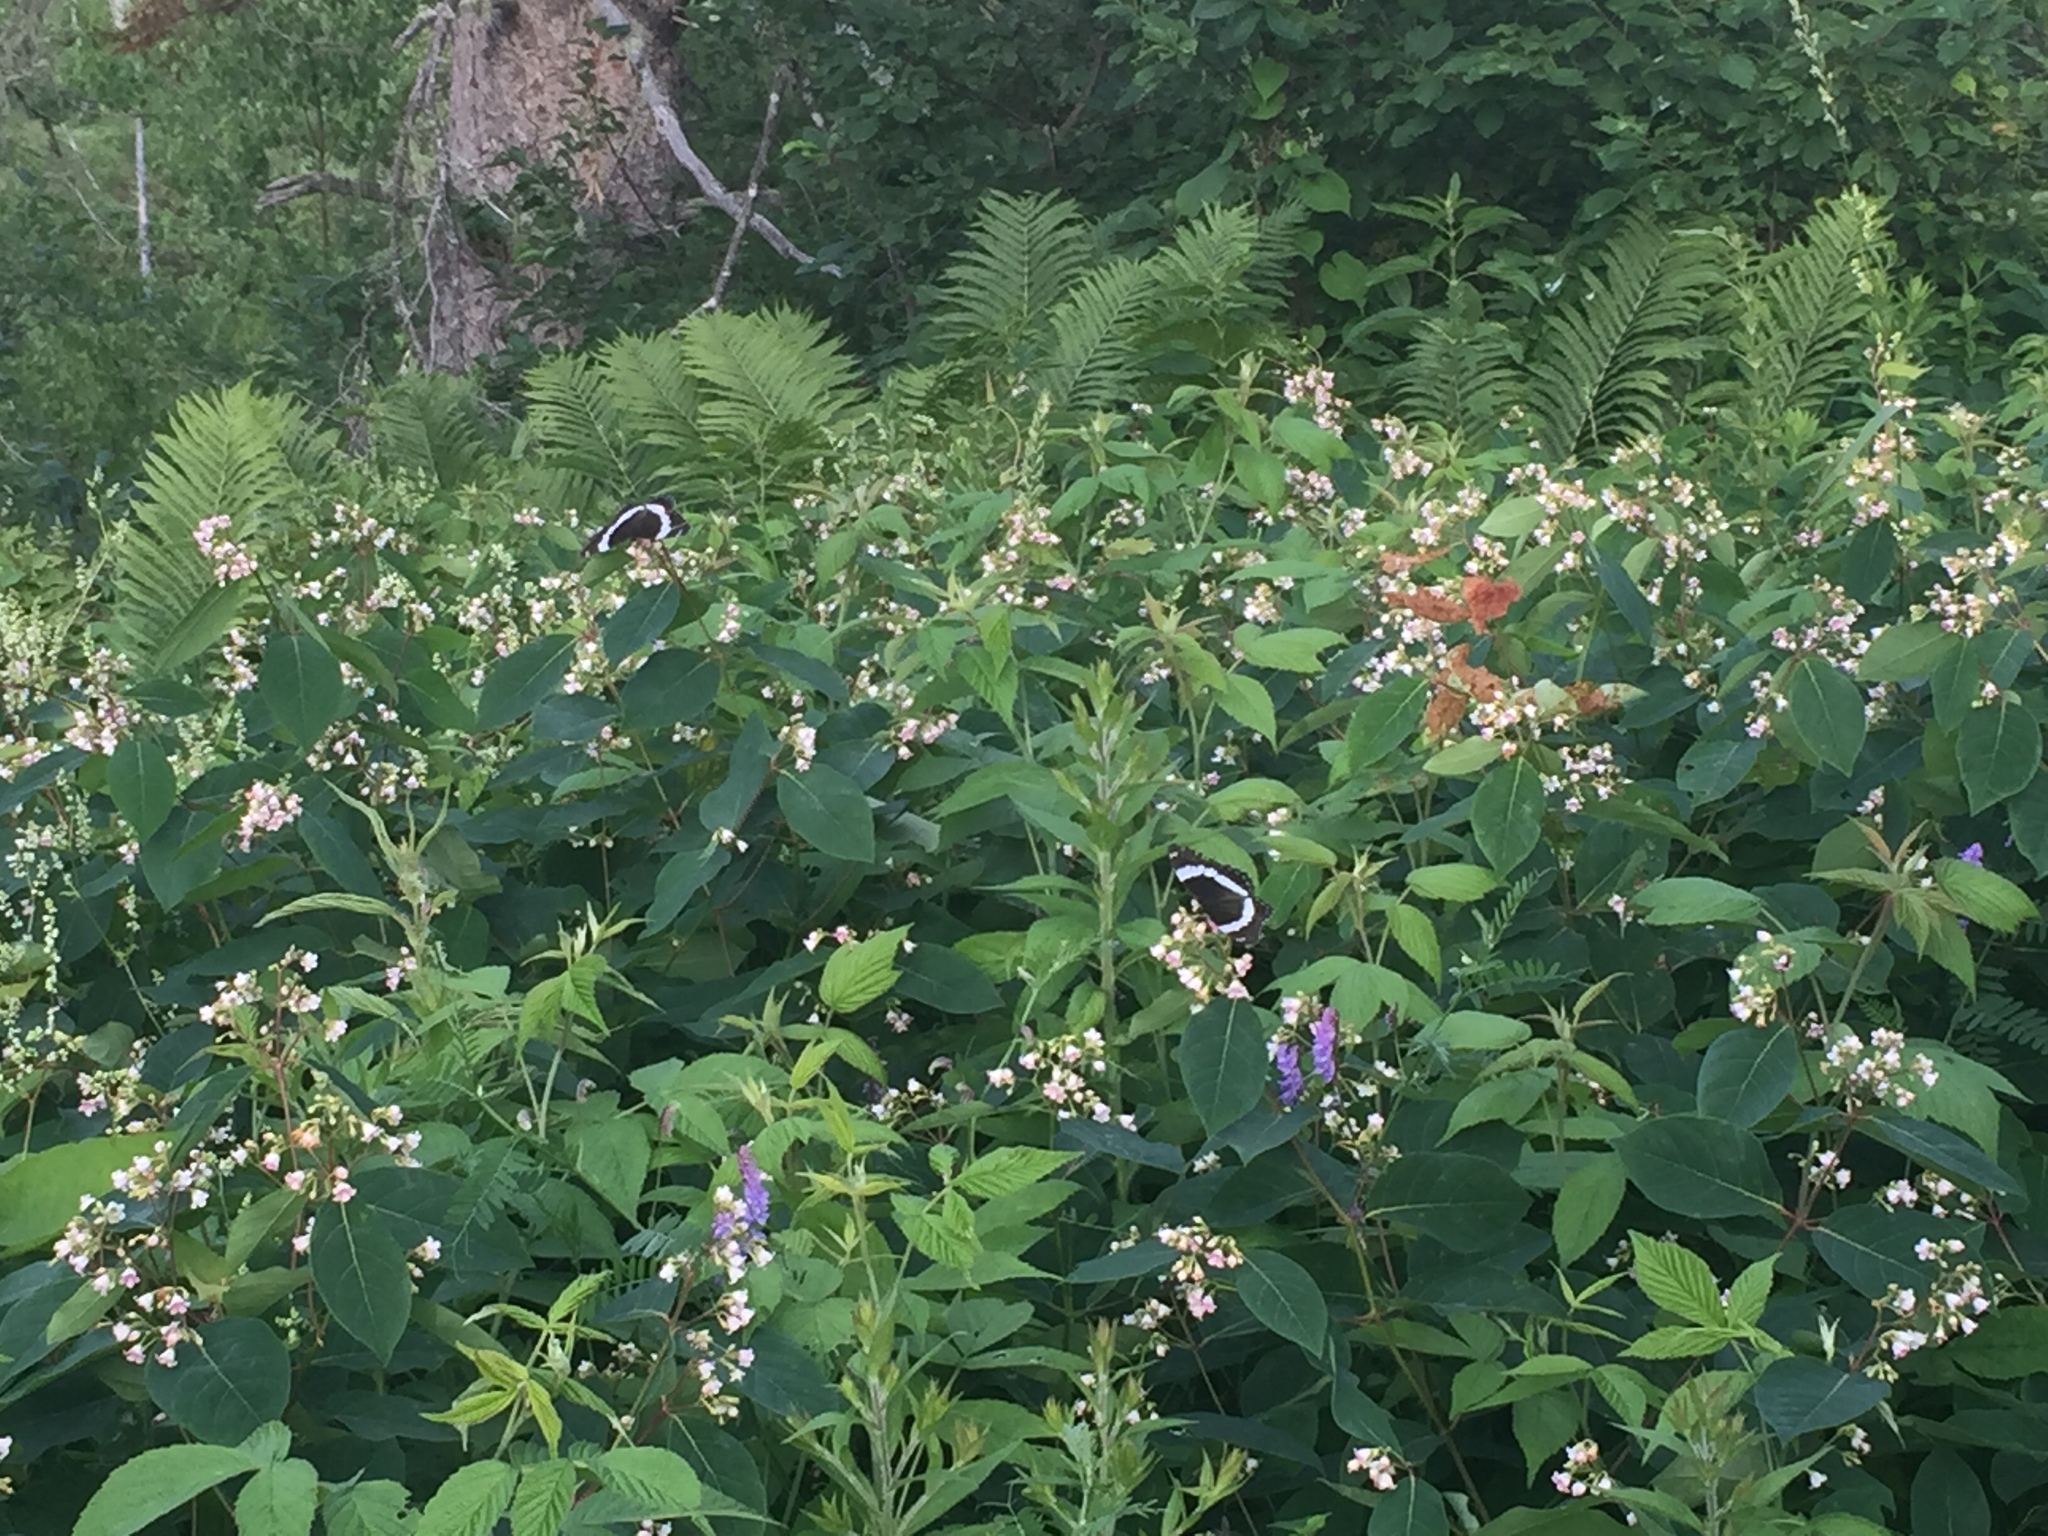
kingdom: Animalia
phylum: Arthropoda
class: Insecta
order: Lepidoptera
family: Nymphalidae
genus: Limenitis
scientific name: Limenitis arthemis
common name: Red-spotted admiral
